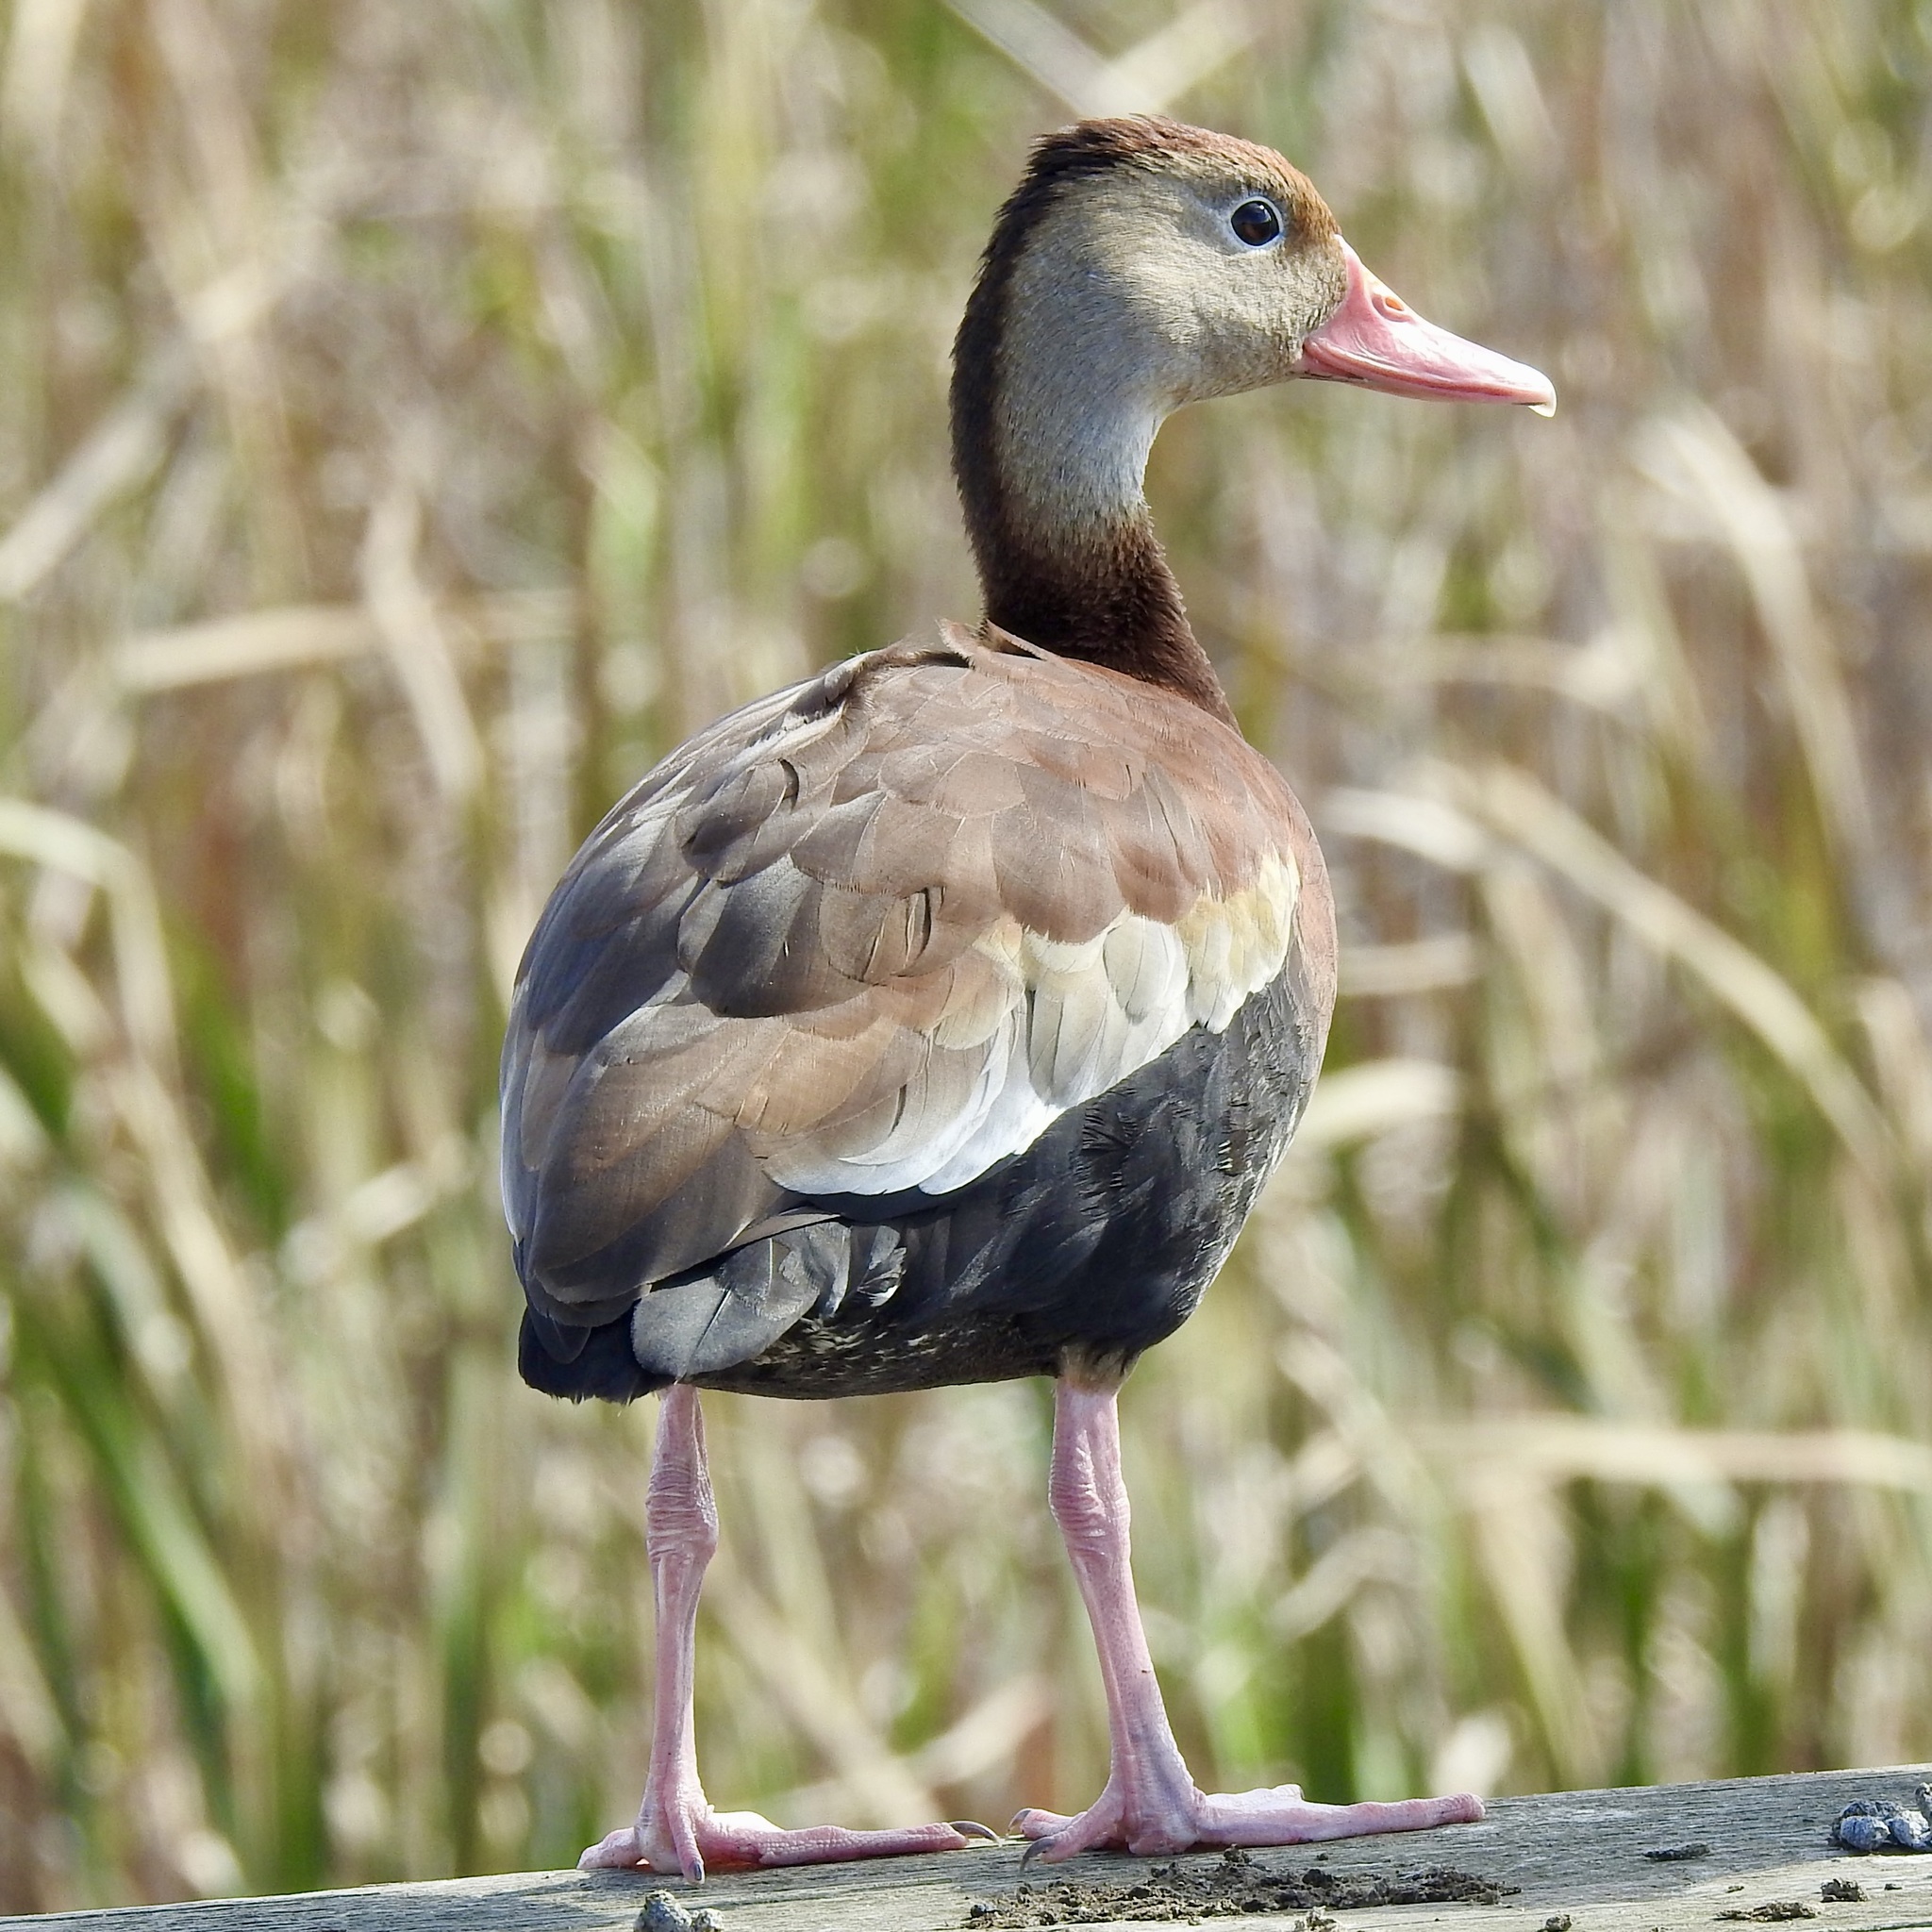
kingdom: Animalia
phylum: Chordata
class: Aves
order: Anseriformes
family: Anatidae
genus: Dendrocygna
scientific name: Dendrocygna autumnalis
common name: Black-bellied whistling duck
